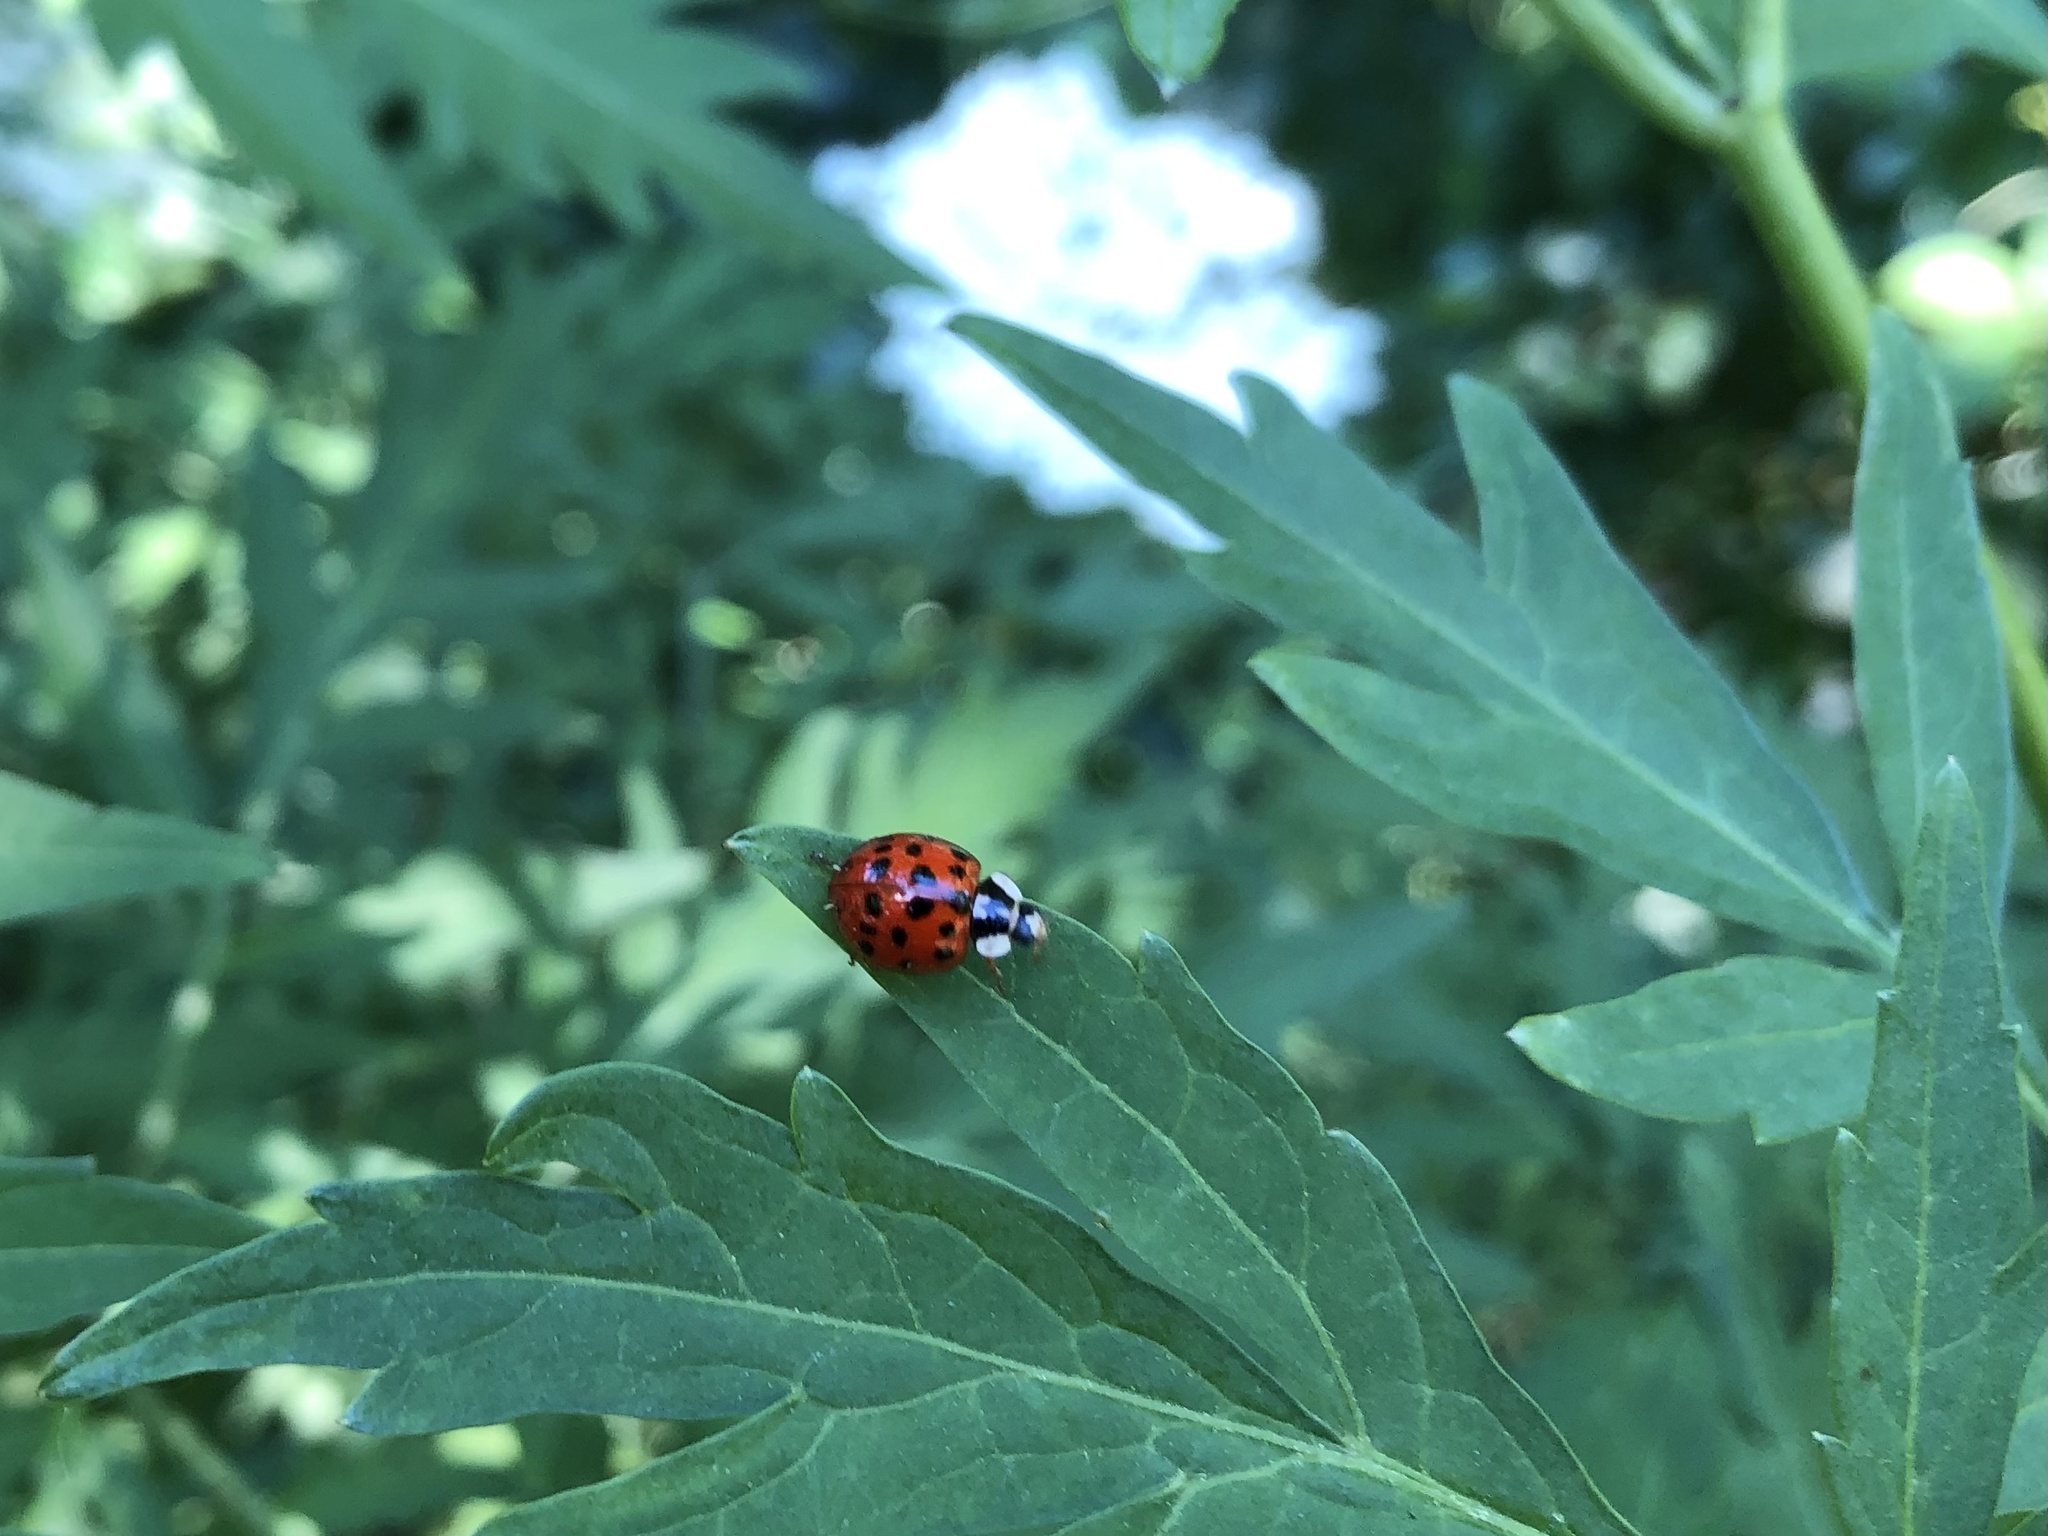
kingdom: Animalia
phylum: Arthropoda
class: Insecta
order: Coleoptera
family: Coccinellidae
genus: Harmonia
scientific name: Harmonia axyridis
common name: Harlequin ladybird
